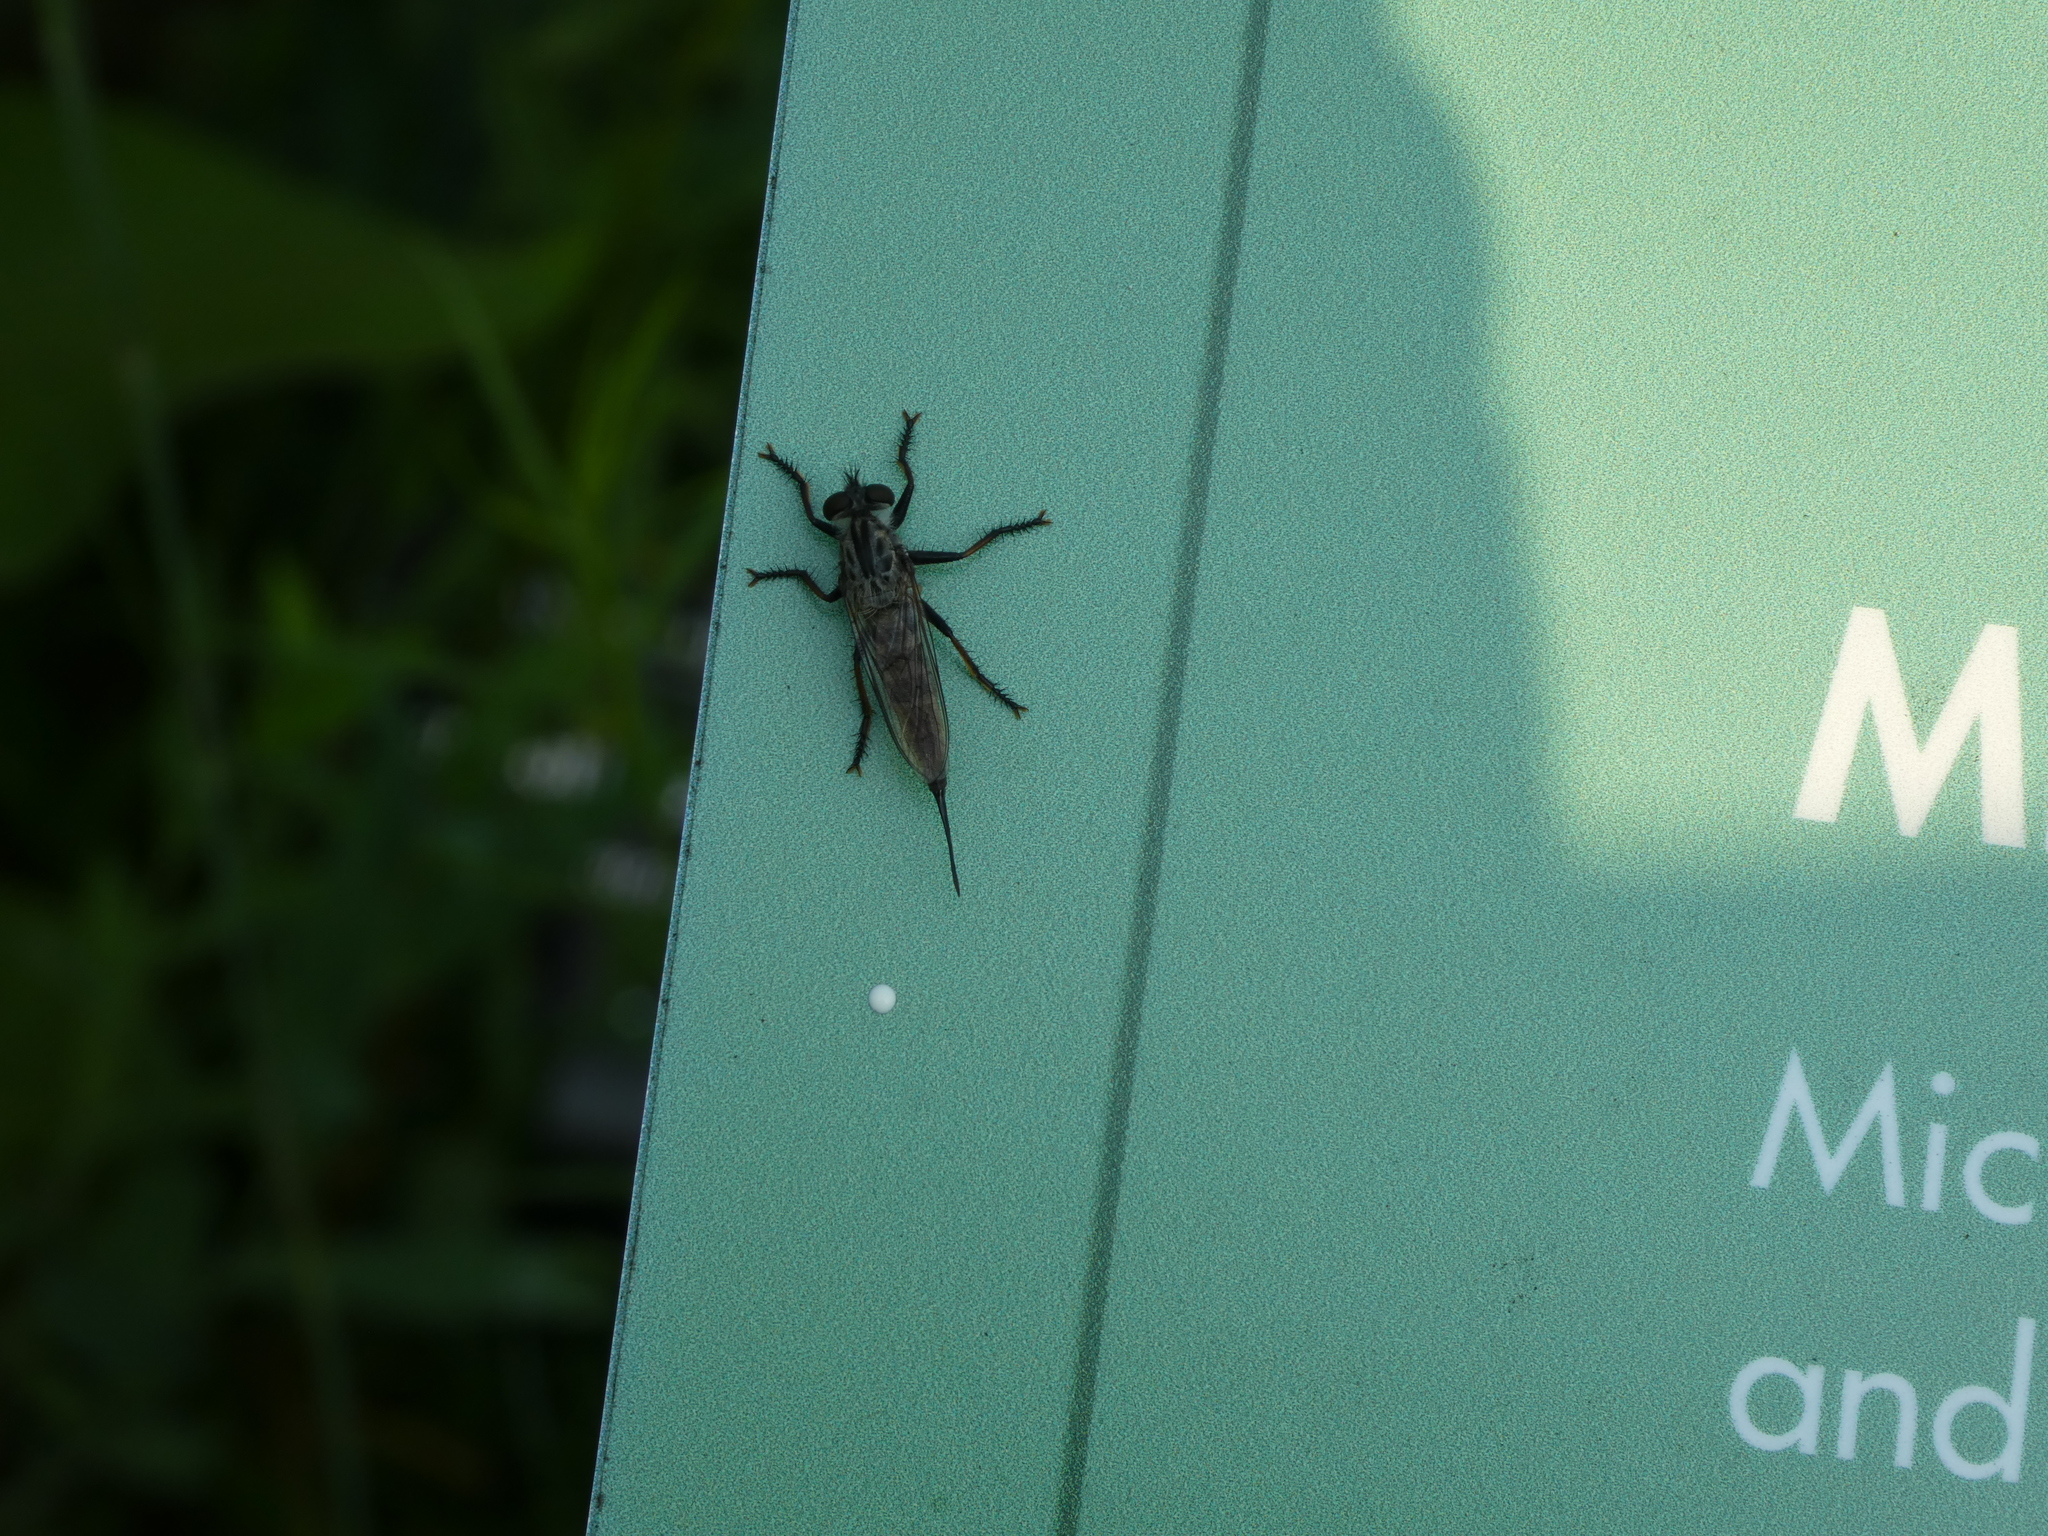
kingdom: Animalia
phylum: Arthropoda
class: Insecta
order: Diptera
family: Asilidae
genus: Efferia
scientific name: Efferia aestuans
